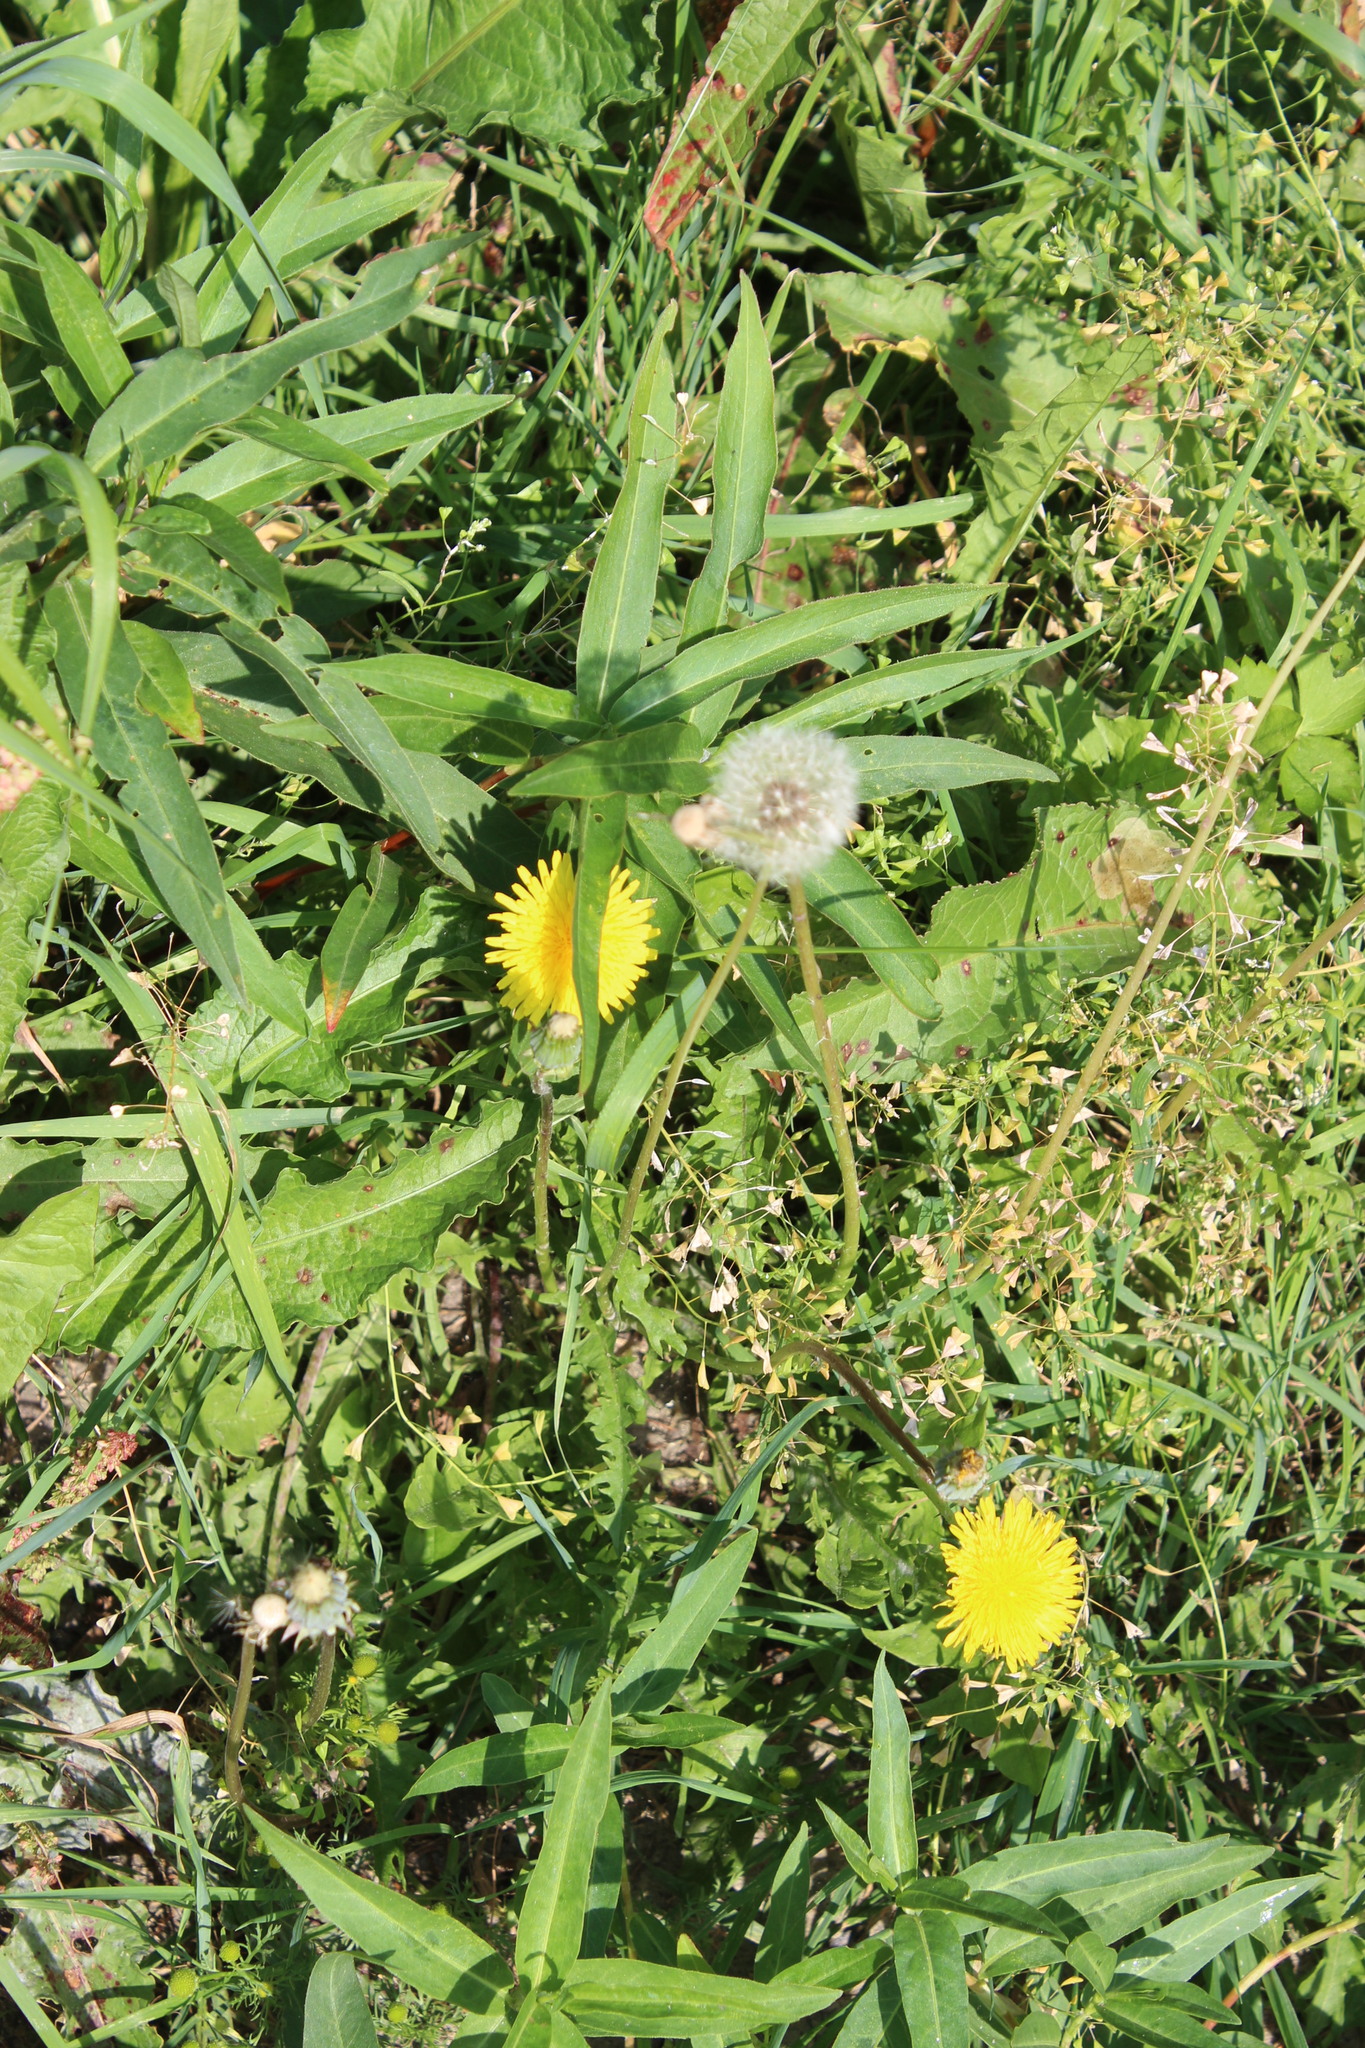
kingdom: Plantae
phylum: Tracheophyta
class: Magnoliopsida
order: Asterales
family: Asteraceae
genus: Taraxacum
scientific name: Taraxacum officinale
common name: Common dandelion
